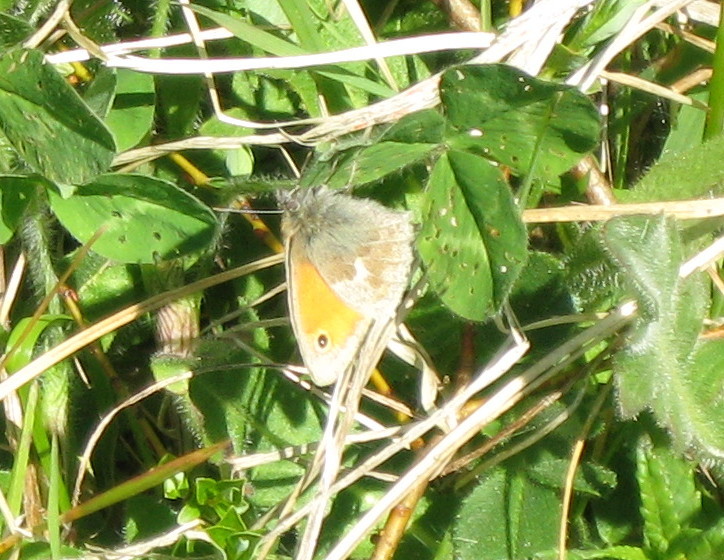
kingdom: Animalia
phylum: Arthropoda
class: Insecta
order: Lepidoptera
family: Nymphalidae
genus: Coenonympha
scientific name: Coenonympha pamphilus
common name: Small heath
